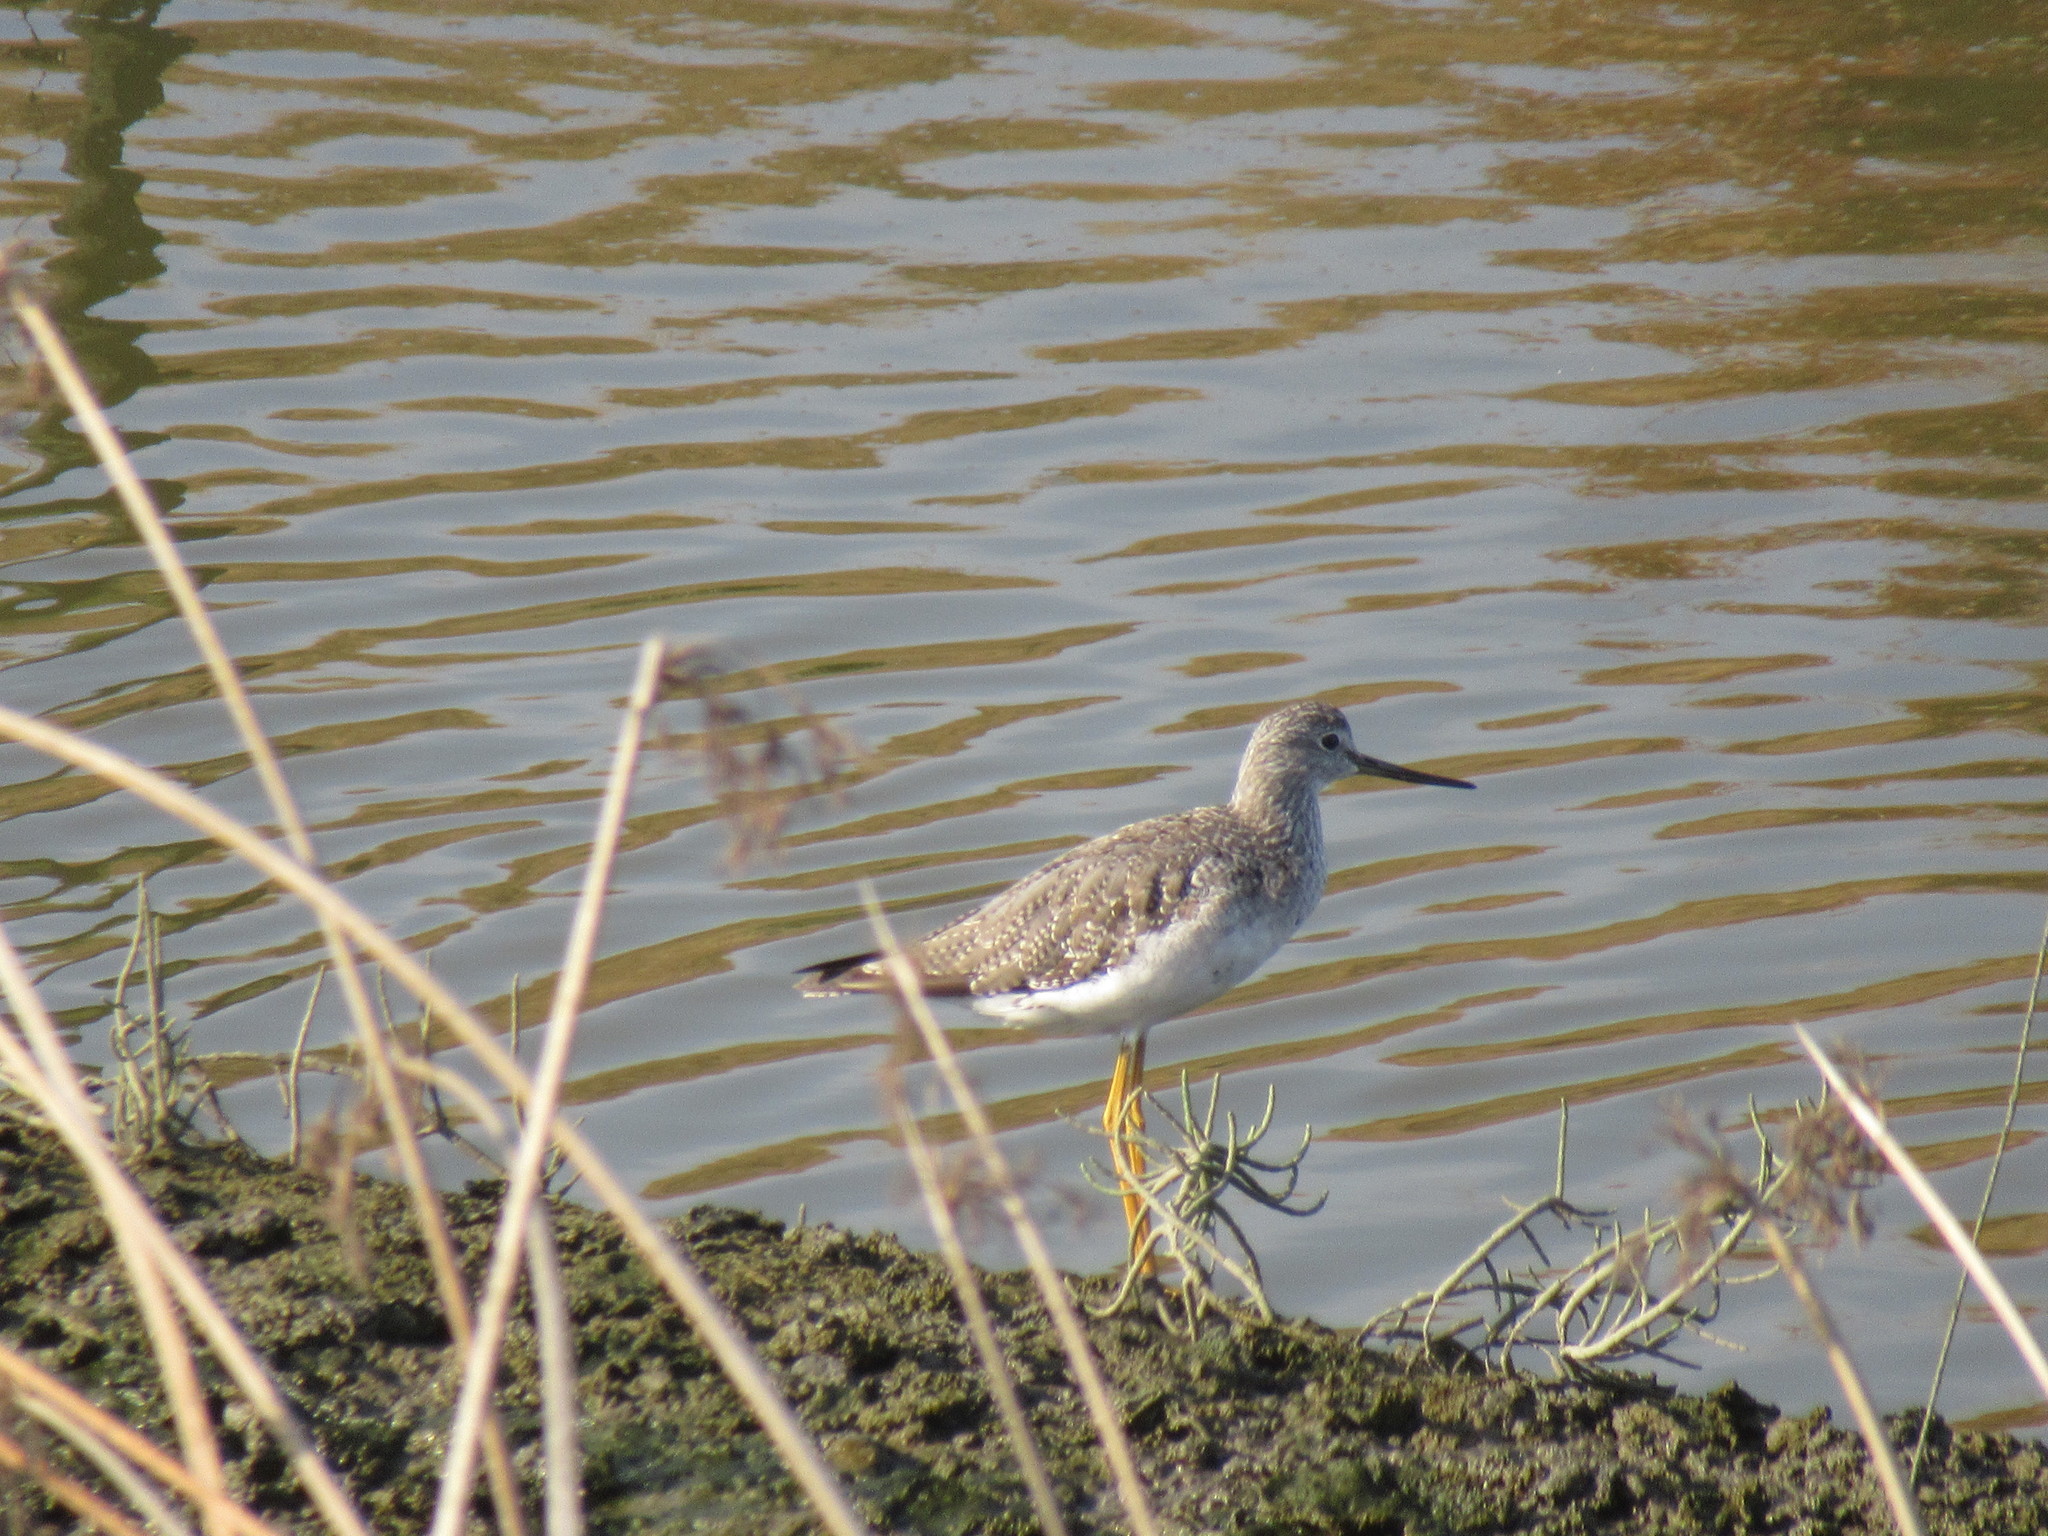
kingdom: Animalia
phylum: Chordata
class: Aves
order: Charadriiformes
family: Scolopacidae
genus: Tringa
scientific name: Tringa melanoleuca
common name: Greater yellowlegs
